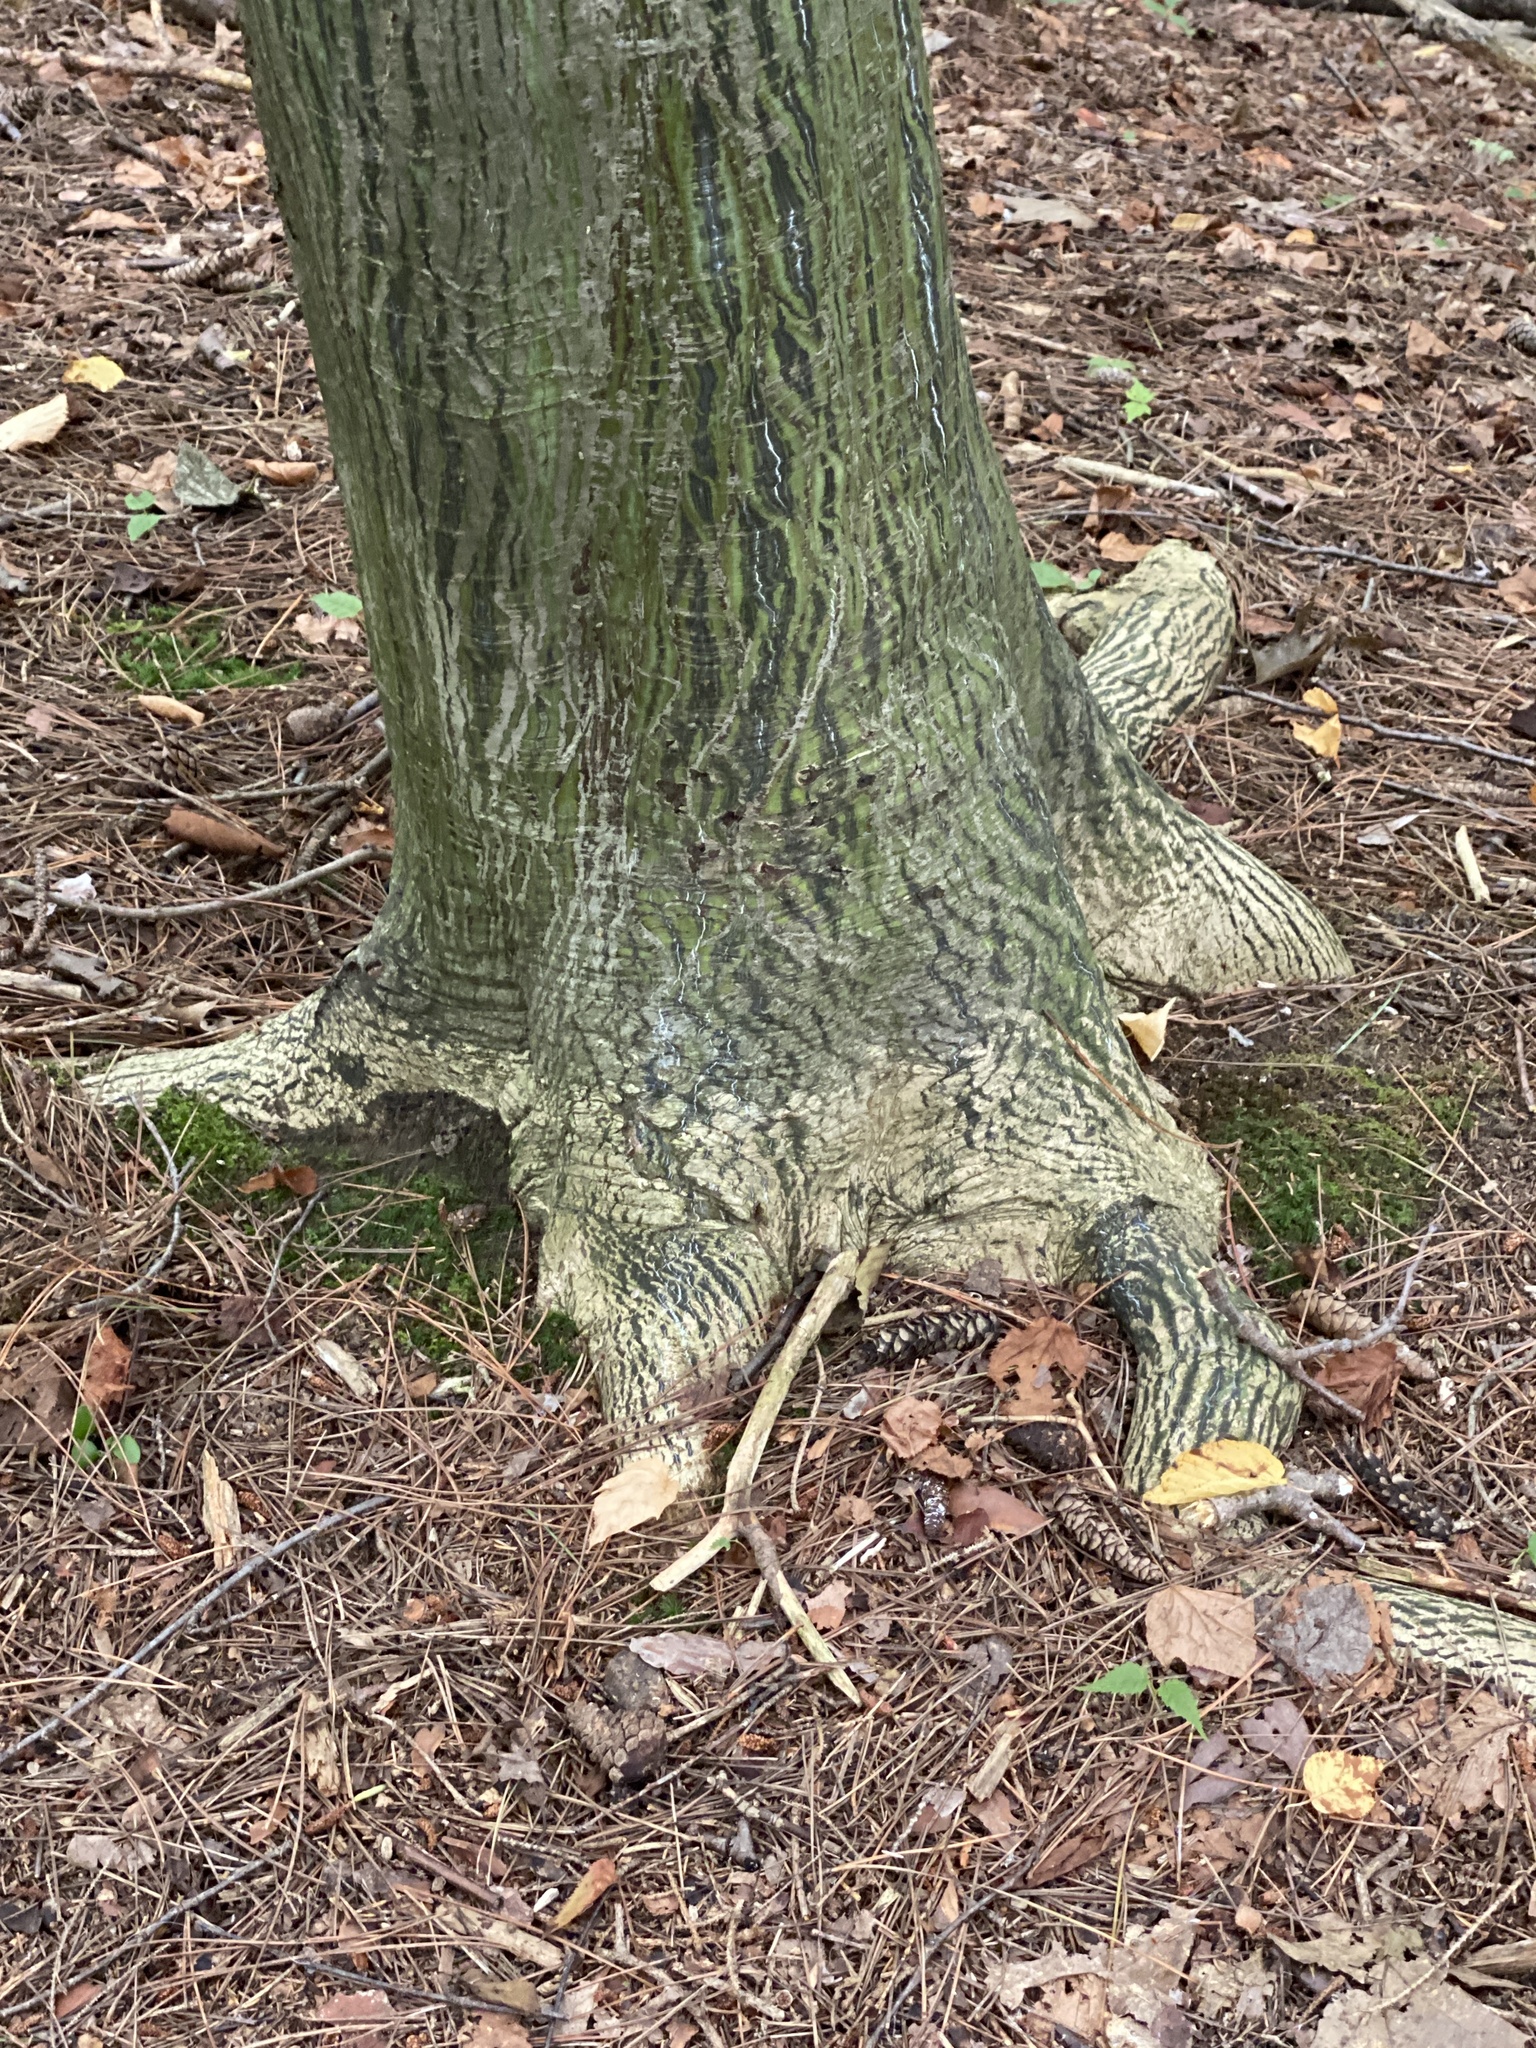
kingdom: Plantae
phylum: Tracheophyta
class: Magnoliopsida
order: Sapindales
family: Sapindaceae
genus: Acer
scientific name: Acer tegmentosum
